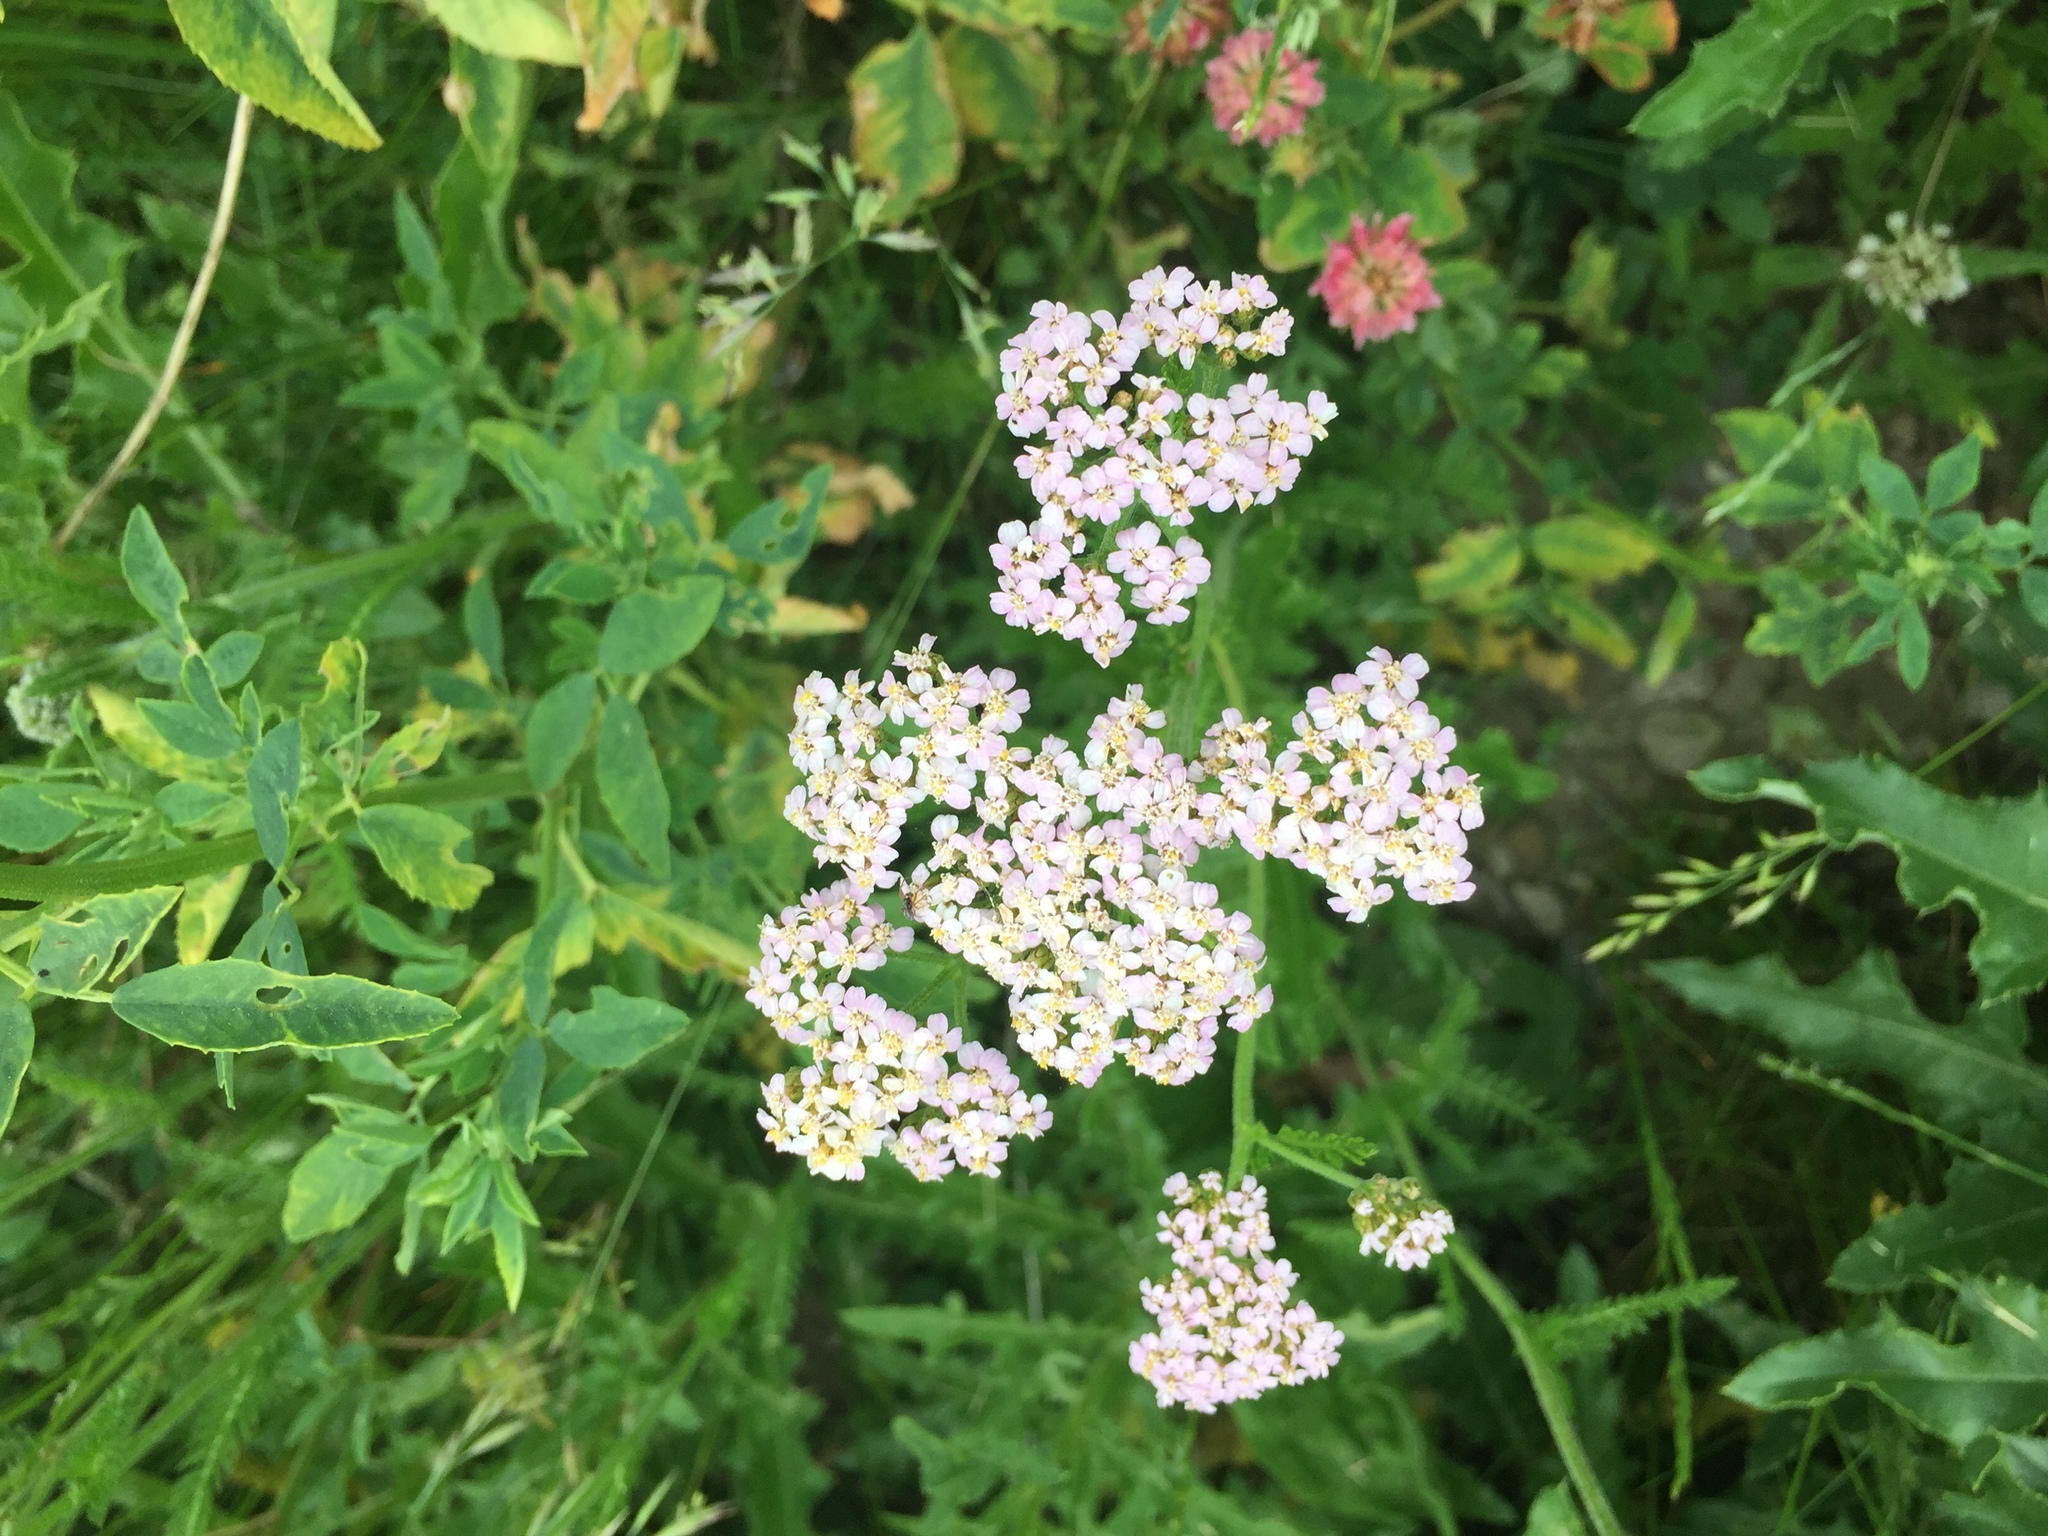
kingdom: Plantae
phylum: Tracheophyta
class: Magnoliopsida
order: Asterales
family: Asteraceae
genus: Achillea
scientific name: Achillea millefolium
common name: Yarrow
